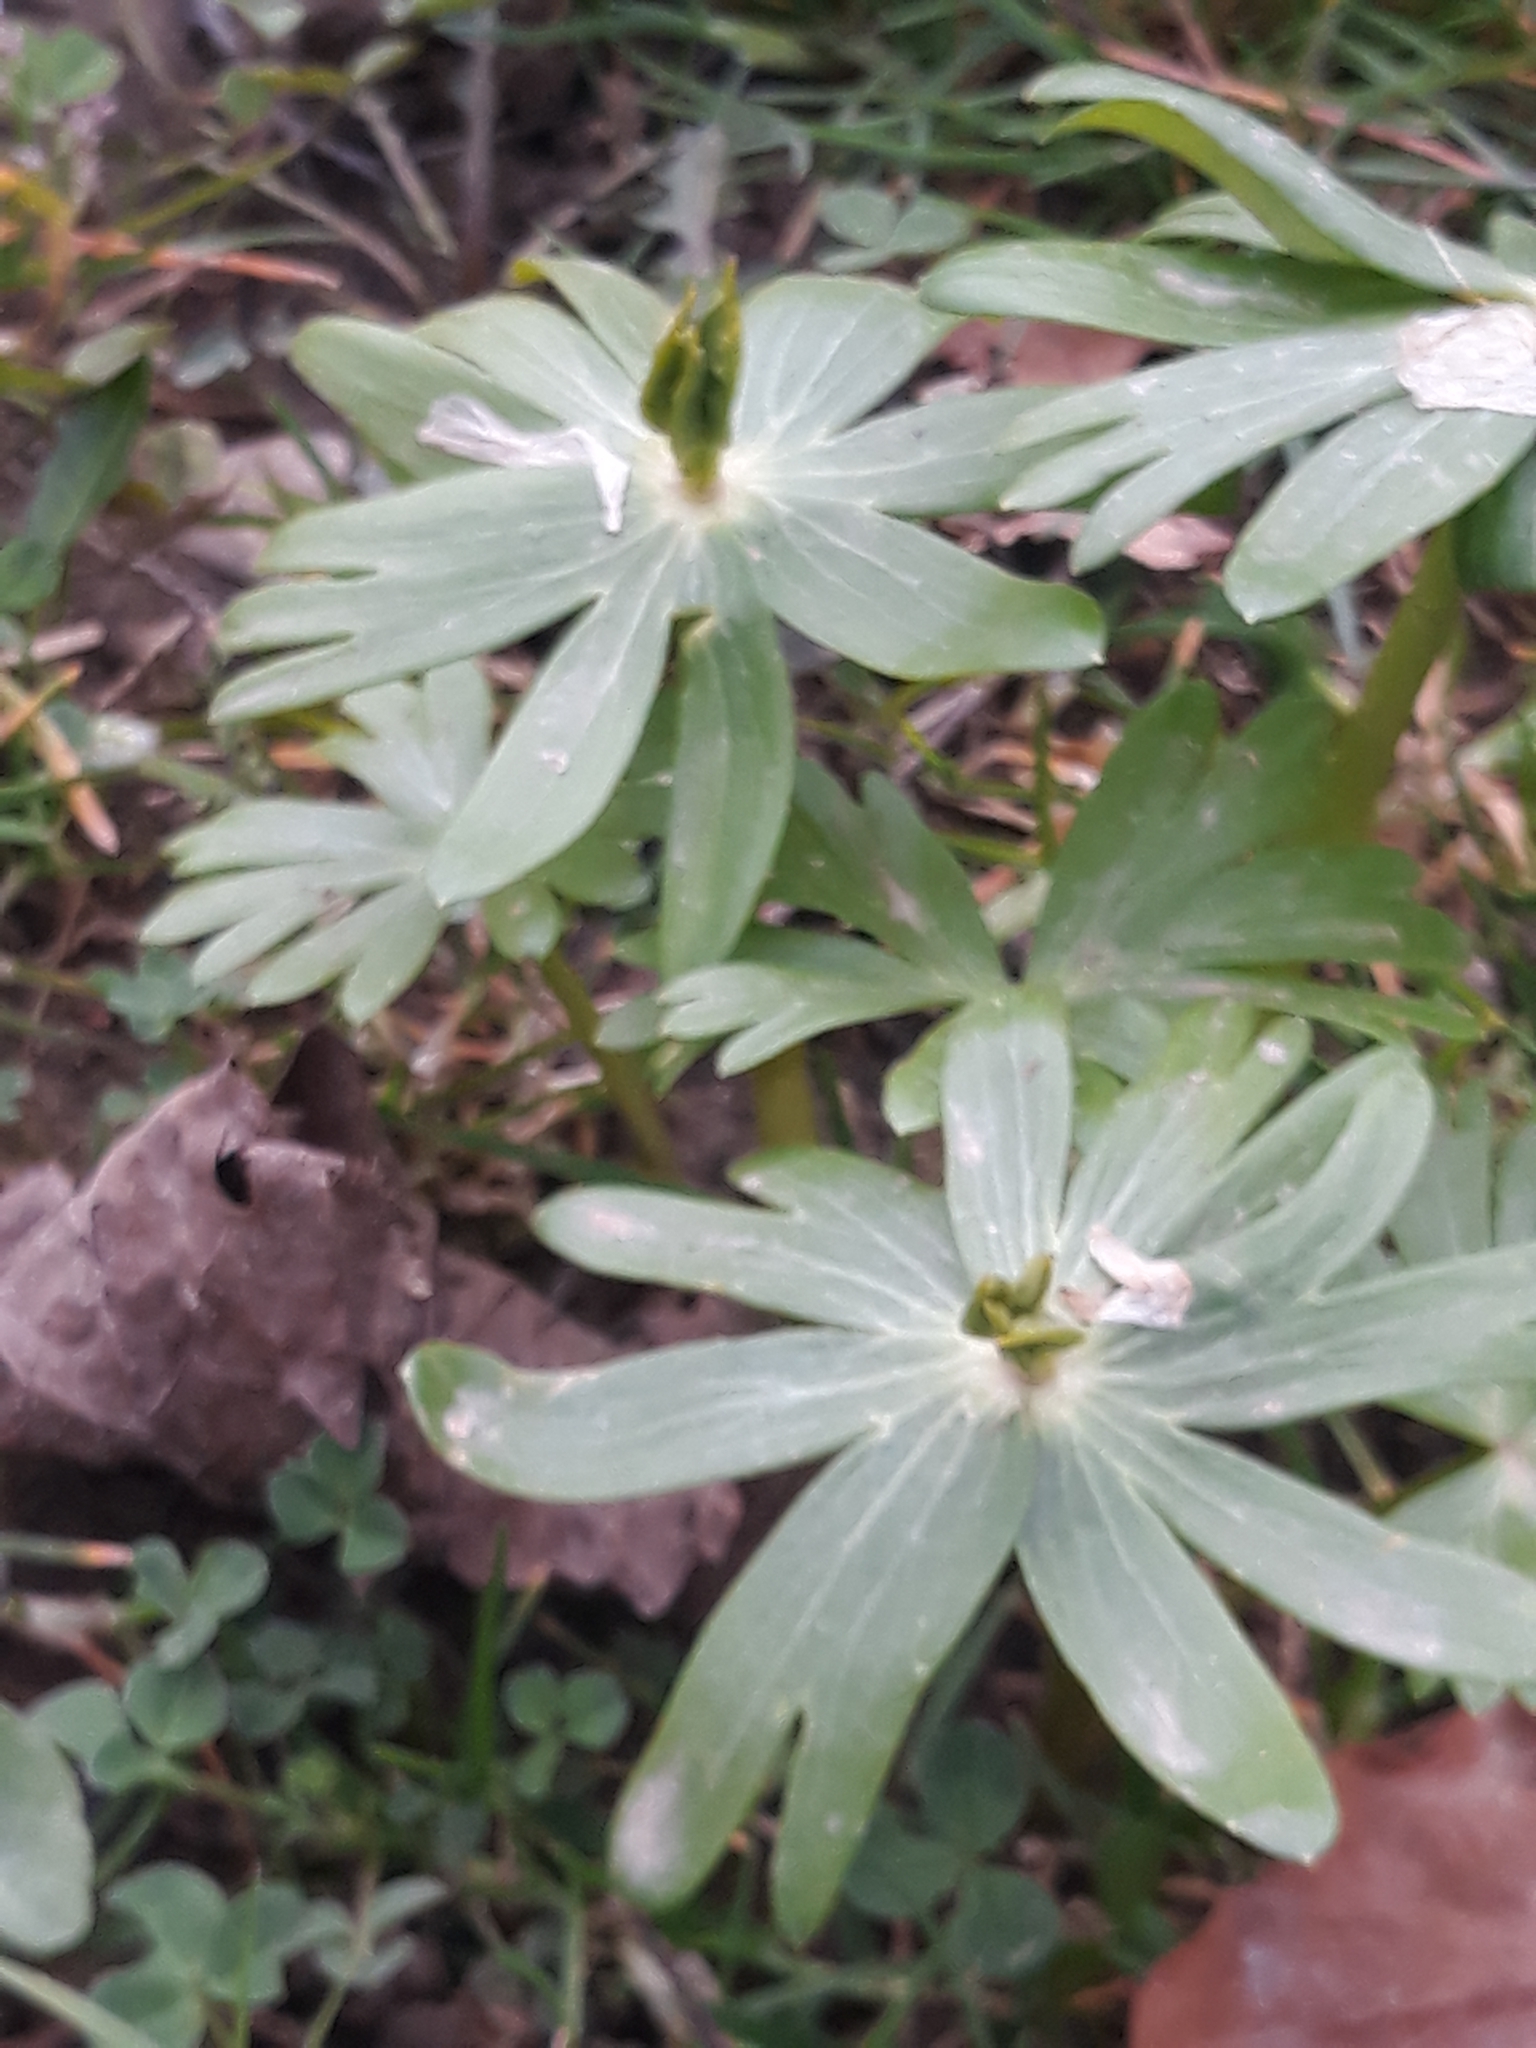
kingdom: Plantae
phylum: Tracheophyta
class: Magnoliopsida
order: Ranunculales
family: Ranunculaceae
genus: Eranthis
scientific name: Eranthis hyemalis
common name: Winter aconite
